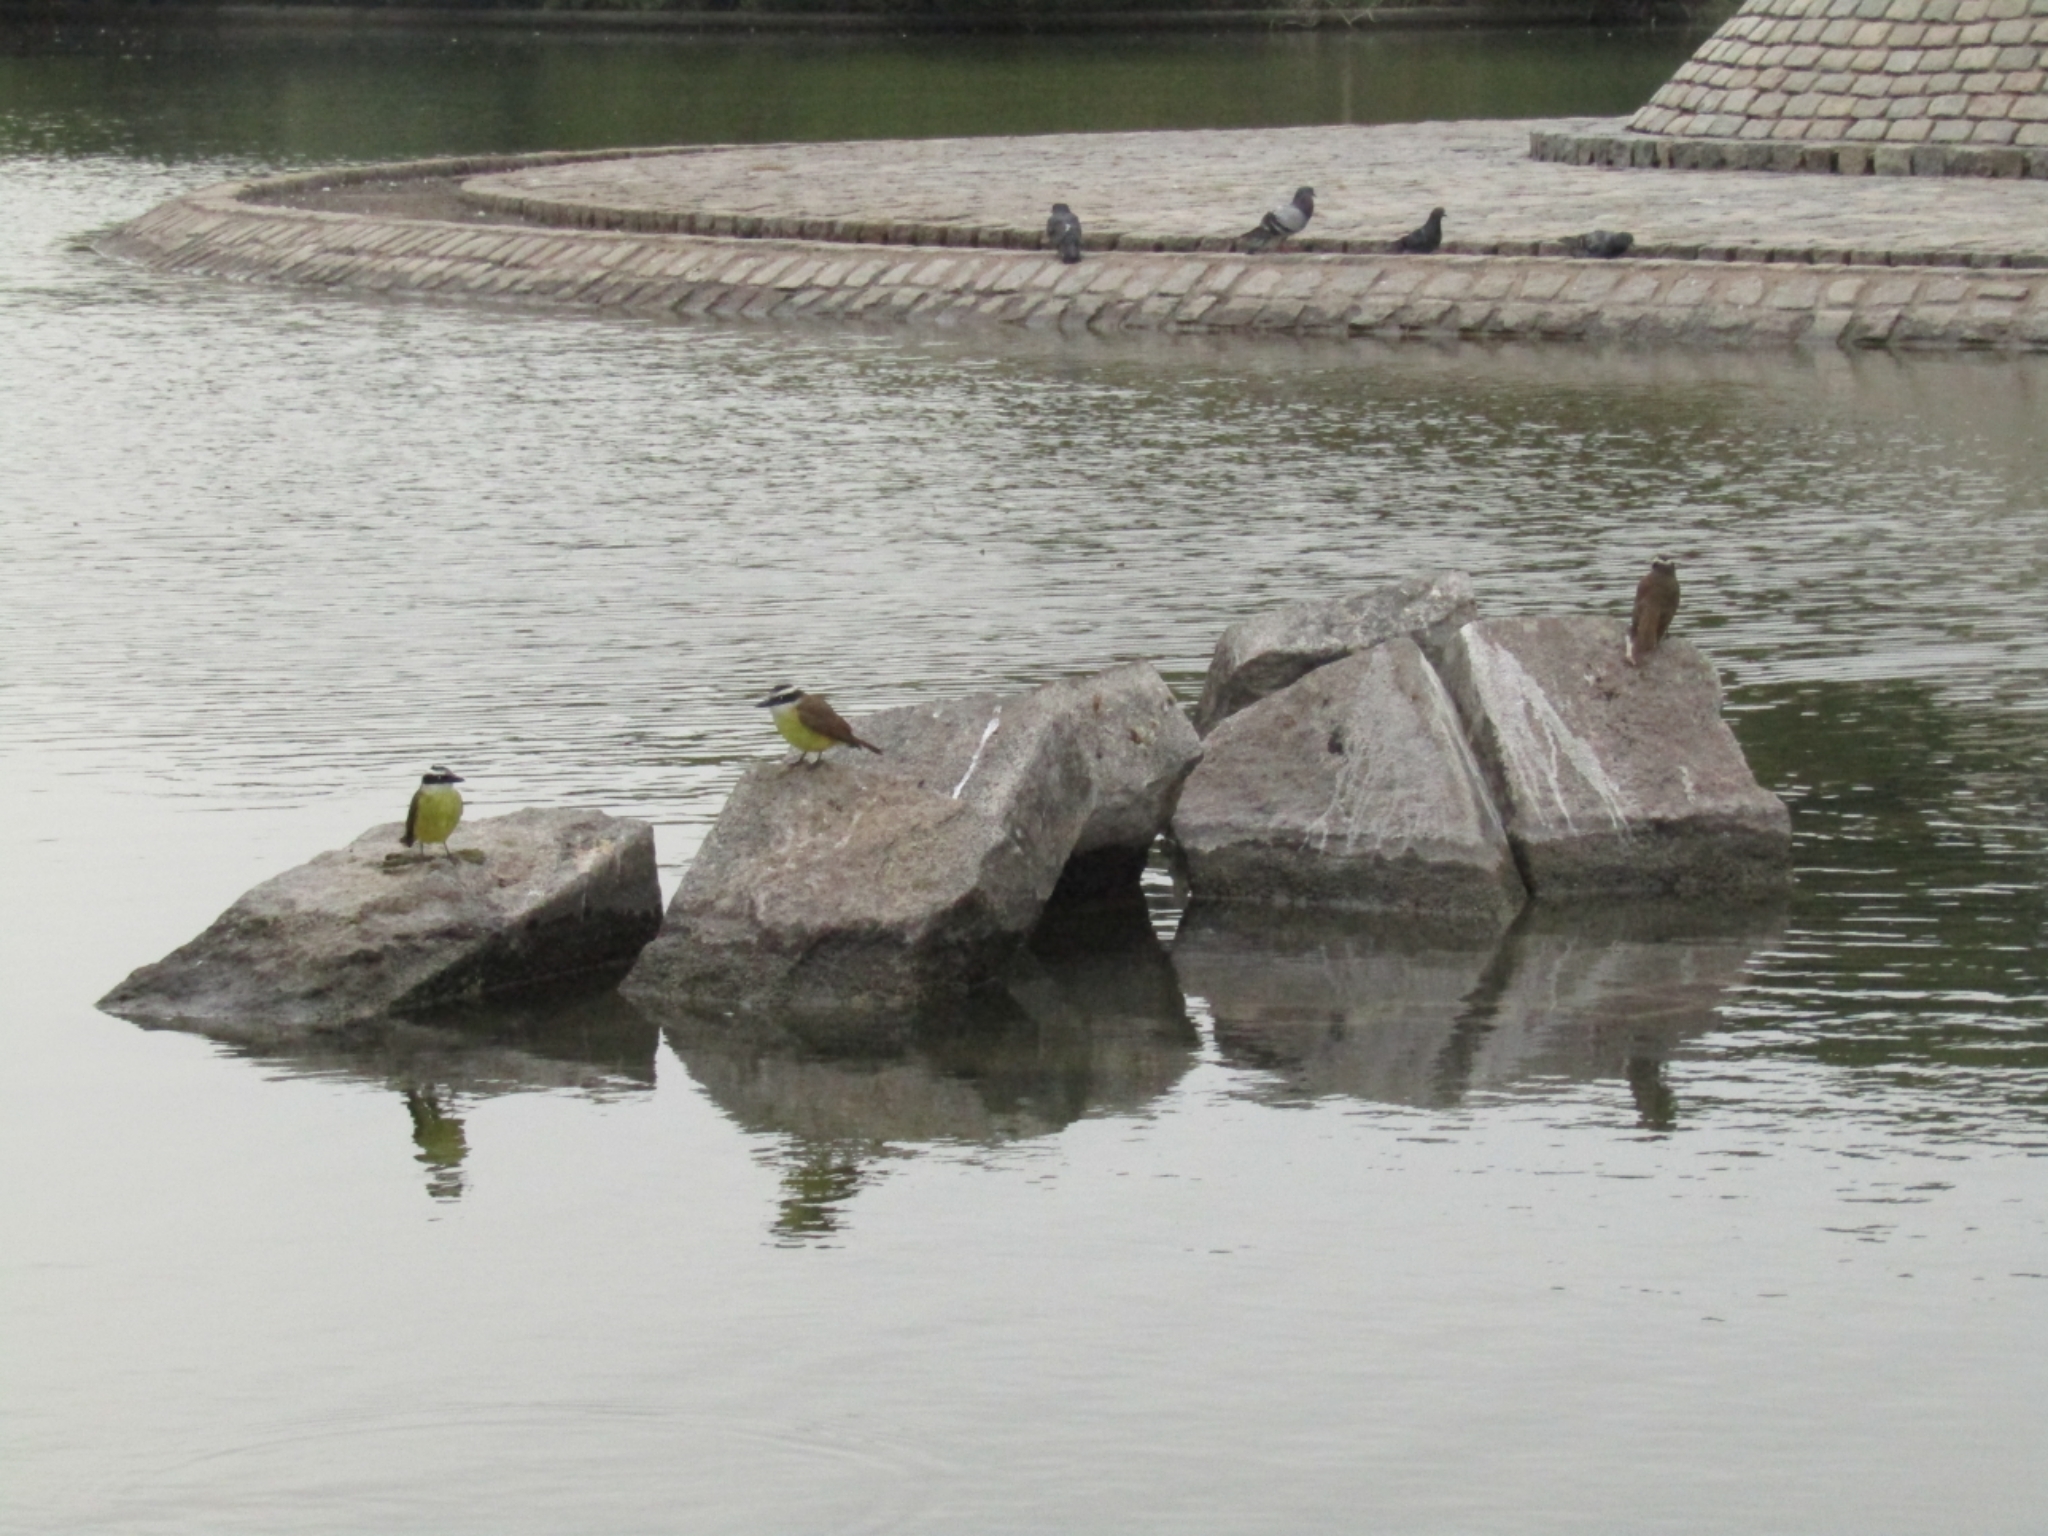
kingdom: Animalia
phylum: Chordata
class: Aves
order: Passeriformes
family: Tyrannidae
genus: Pitangus
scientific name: Pitangus sulphuratus
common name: Great kiskadee
